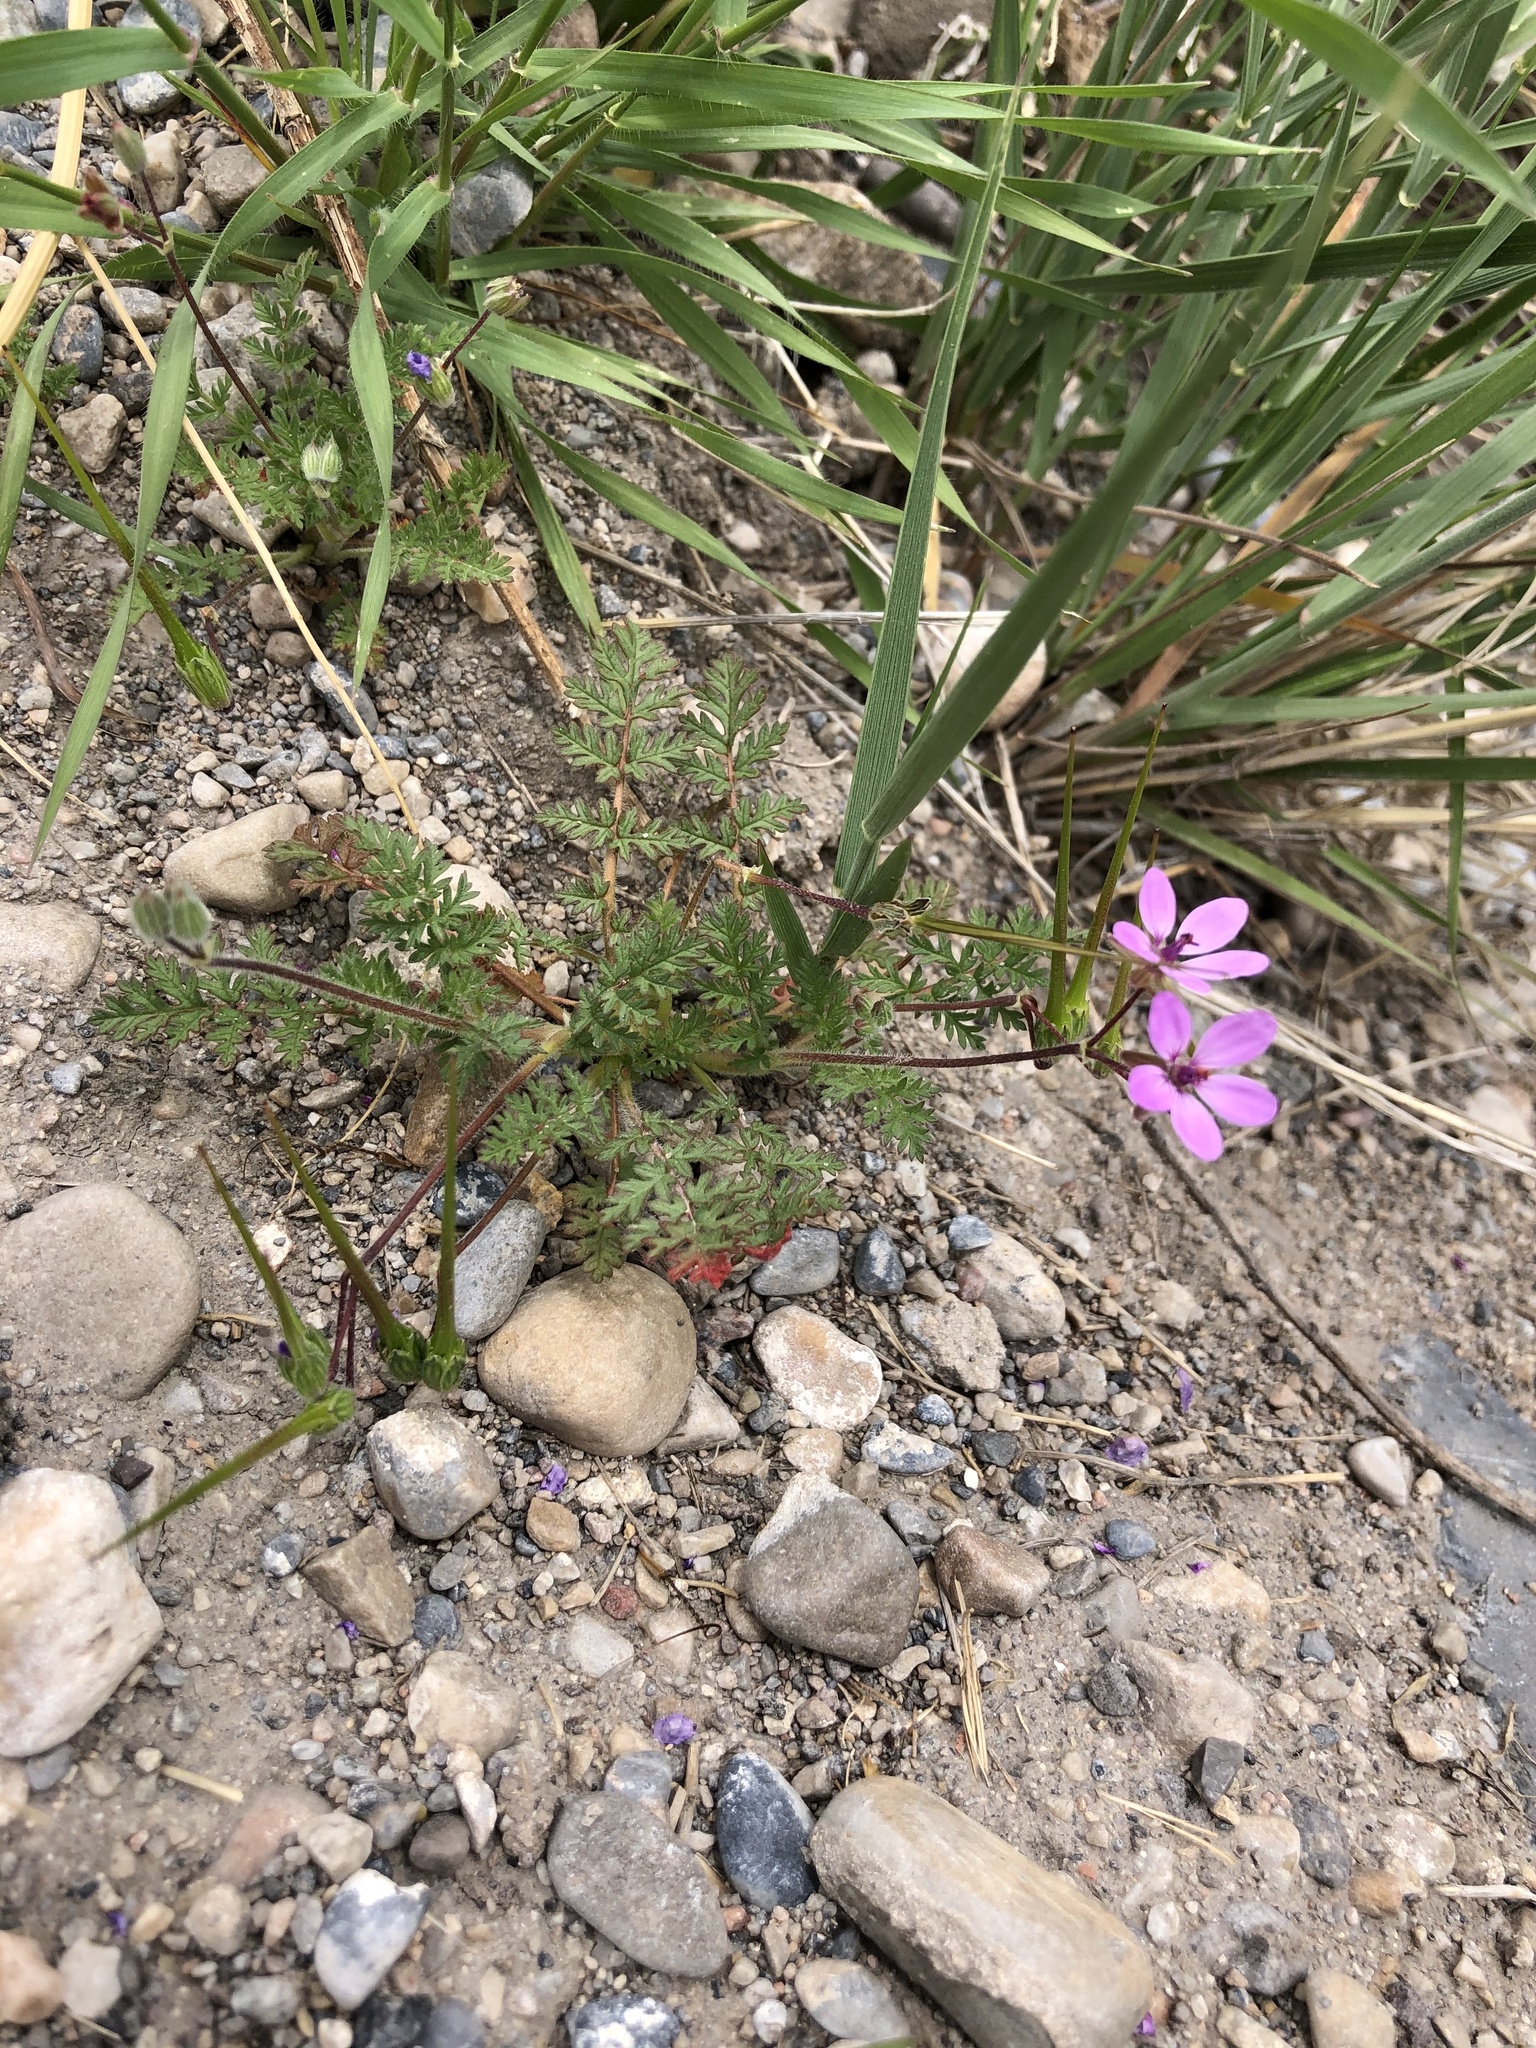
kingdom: Plantae
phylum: Tracheophyta
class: Magnoliopsida
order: Geraniales
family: Geraniaceae
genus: Erodium
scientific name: Erodium cicutarium
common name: Common stork's-bill
